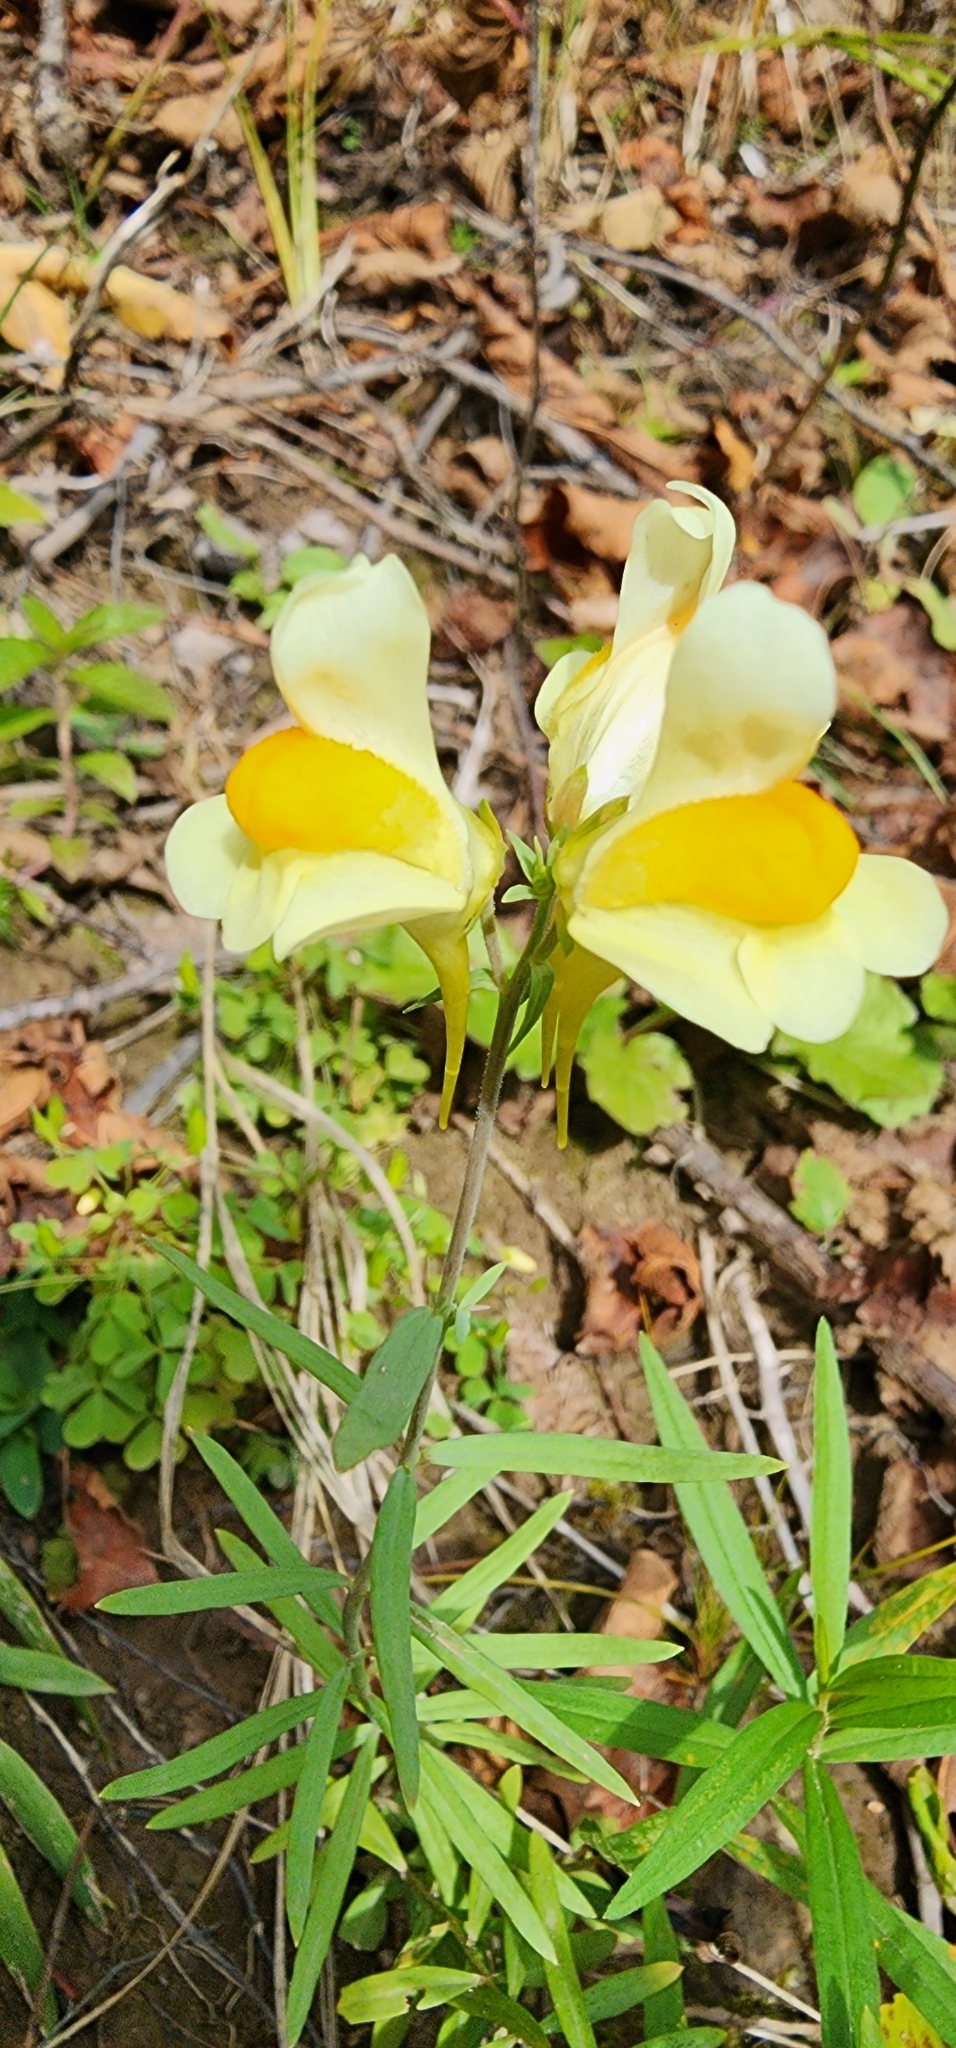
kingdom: Plantae
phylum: Tracheophyta
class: Magnoliopsida
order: Lamiales
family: Plantaginaceae
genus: Linaria
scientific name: Linaria vulgaris
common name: Butter and eggs
